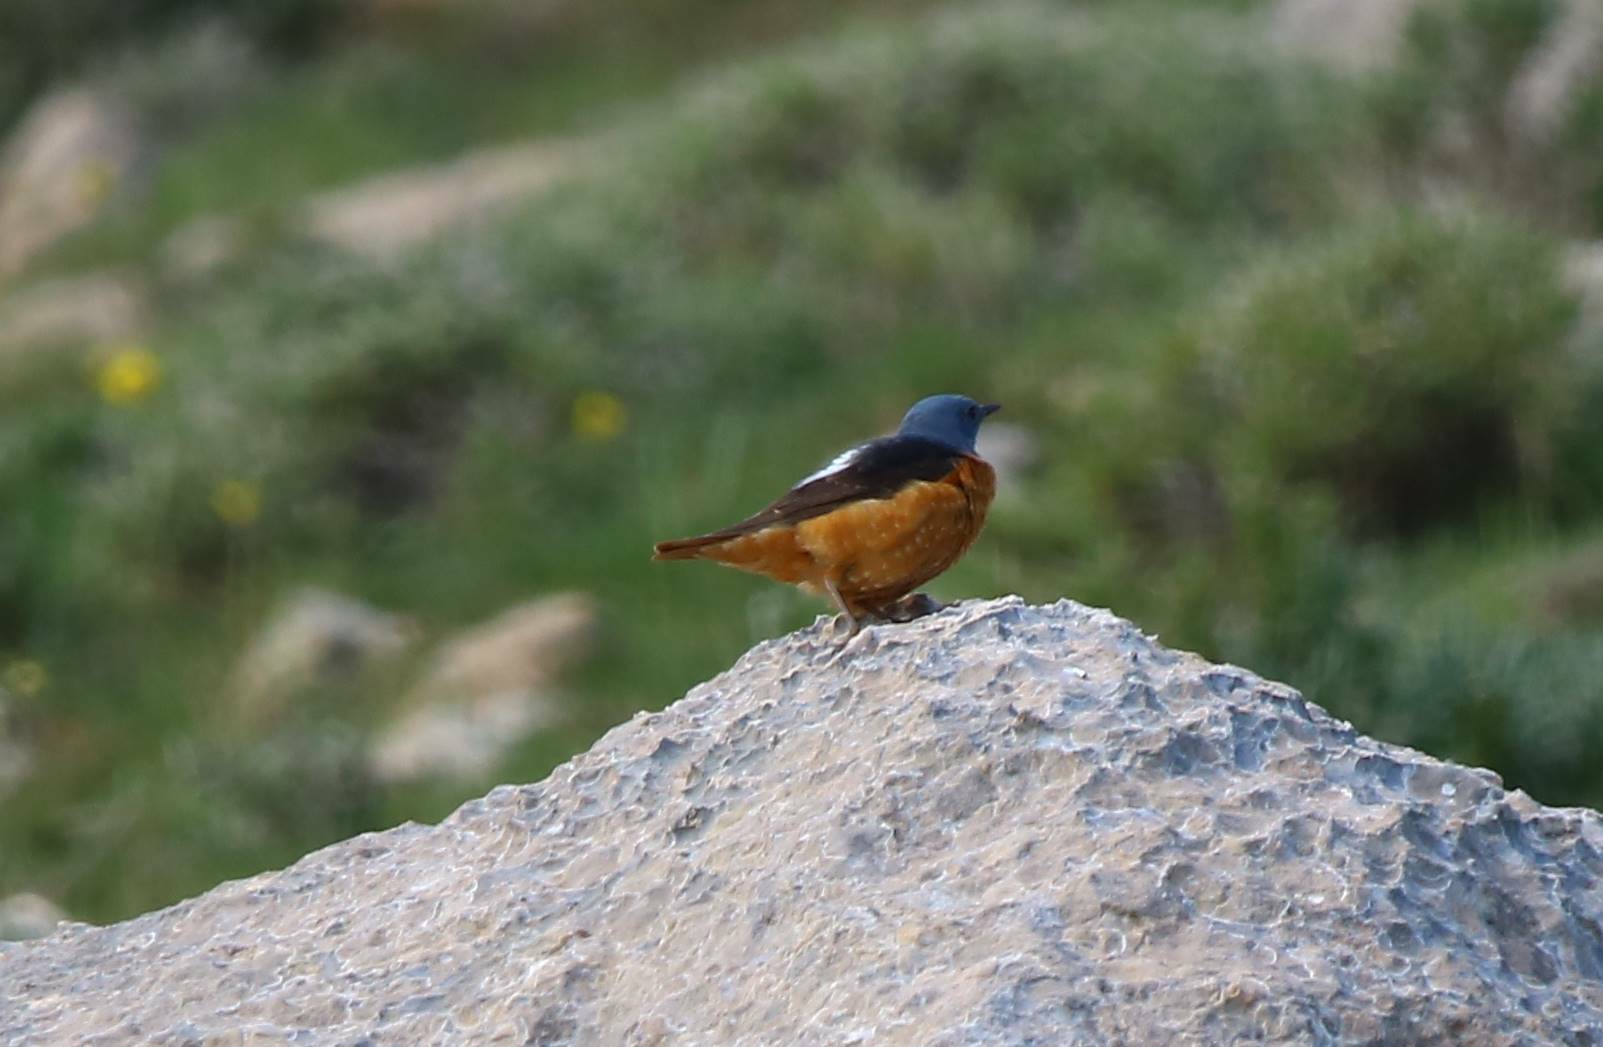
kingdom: Animalia
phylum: Chordata
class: Aves
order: Passeriformes
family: Muscicapidae
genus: Monticola
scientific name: Monticola saxatilis
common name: Rufous-tailed rock thrush
